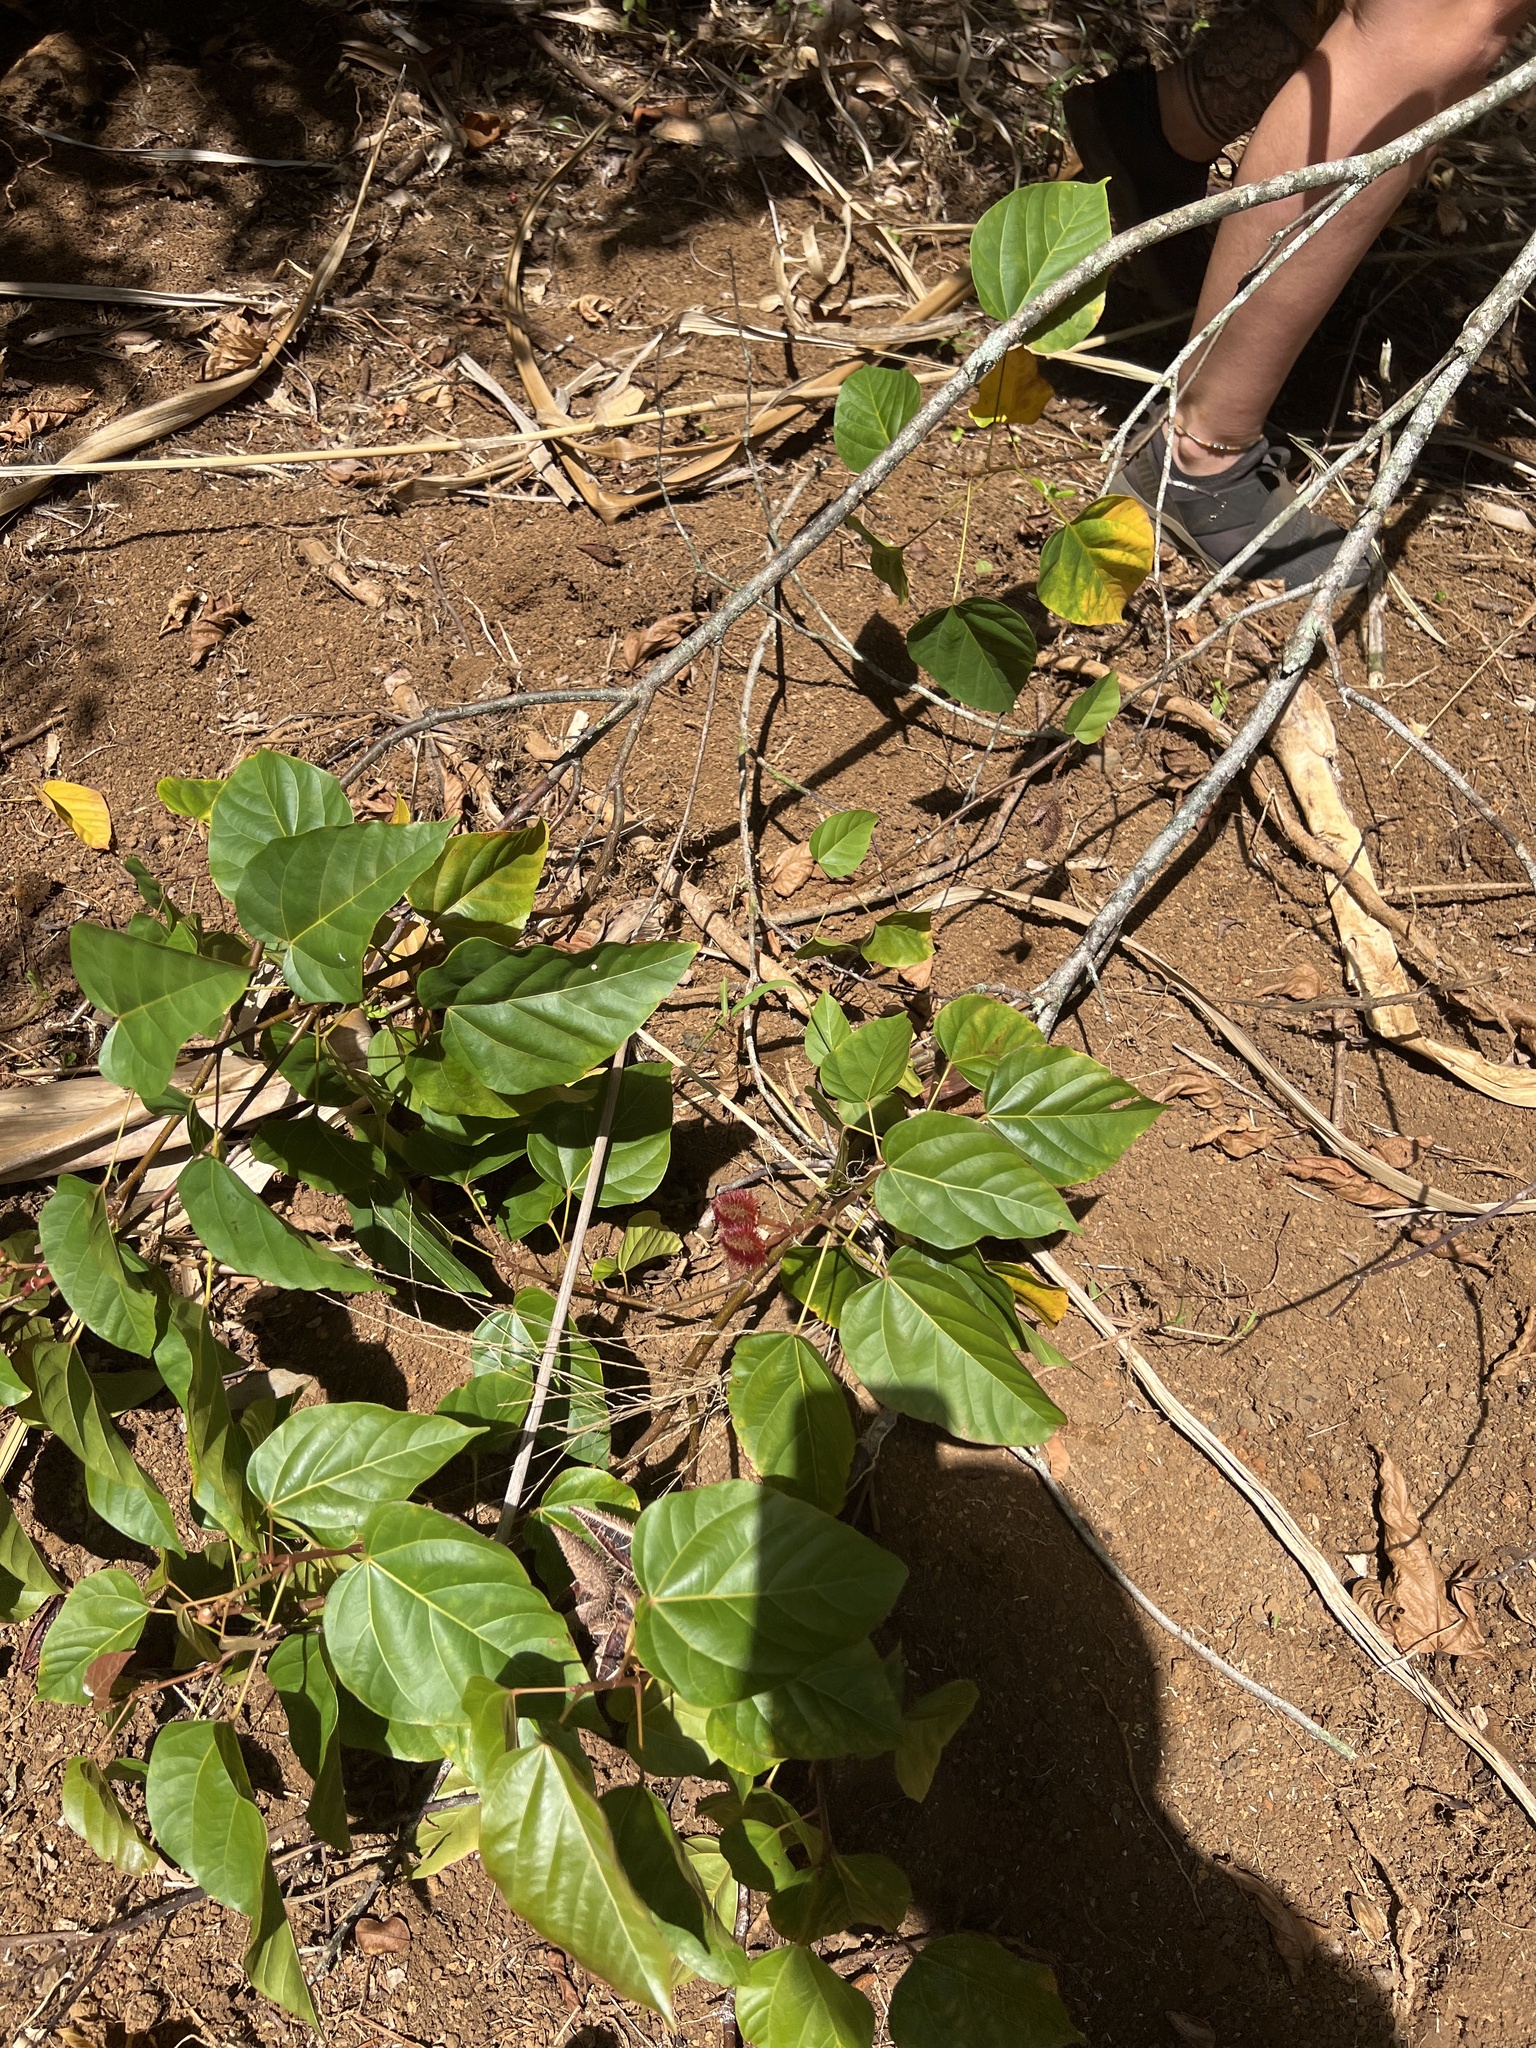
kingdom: Plantae
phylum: Tracheophyta
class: Magnoliopsida
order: Malvales
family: Bixaceae
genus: Bixa
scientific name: Bixa orellana
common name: Lipsticktree
